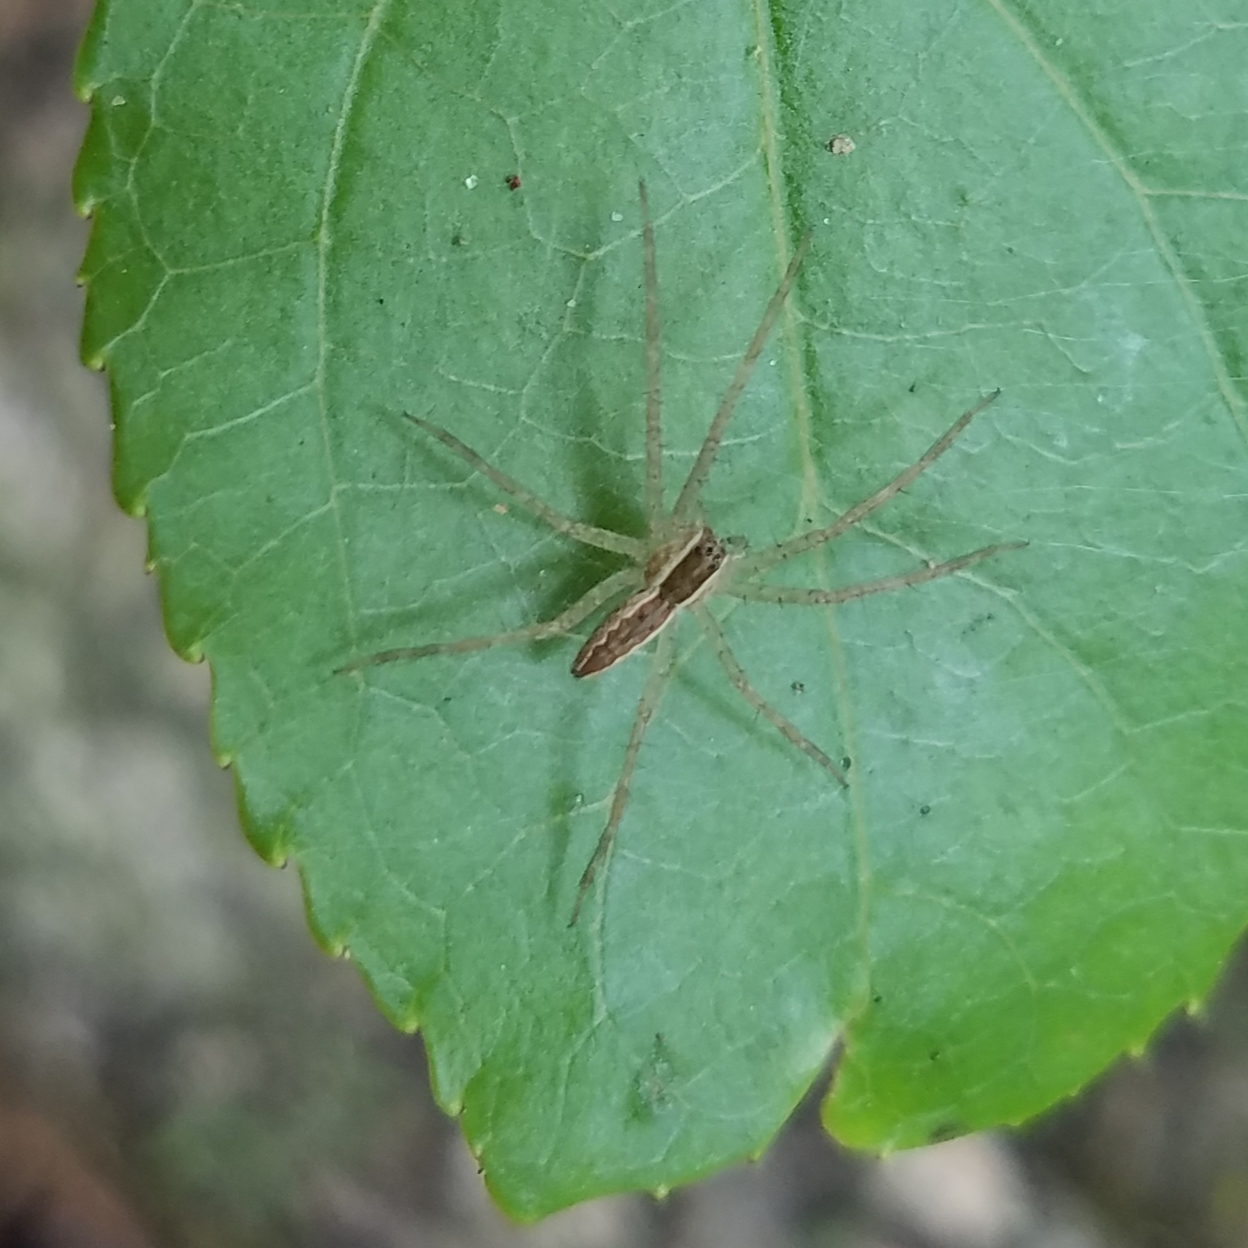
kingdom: Animalia
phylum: Arthropoda
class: Arachnida
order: Araneae
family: Pisauridae
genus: Pisaurina
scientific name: Pisaurina mira
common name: American nursery web spider
